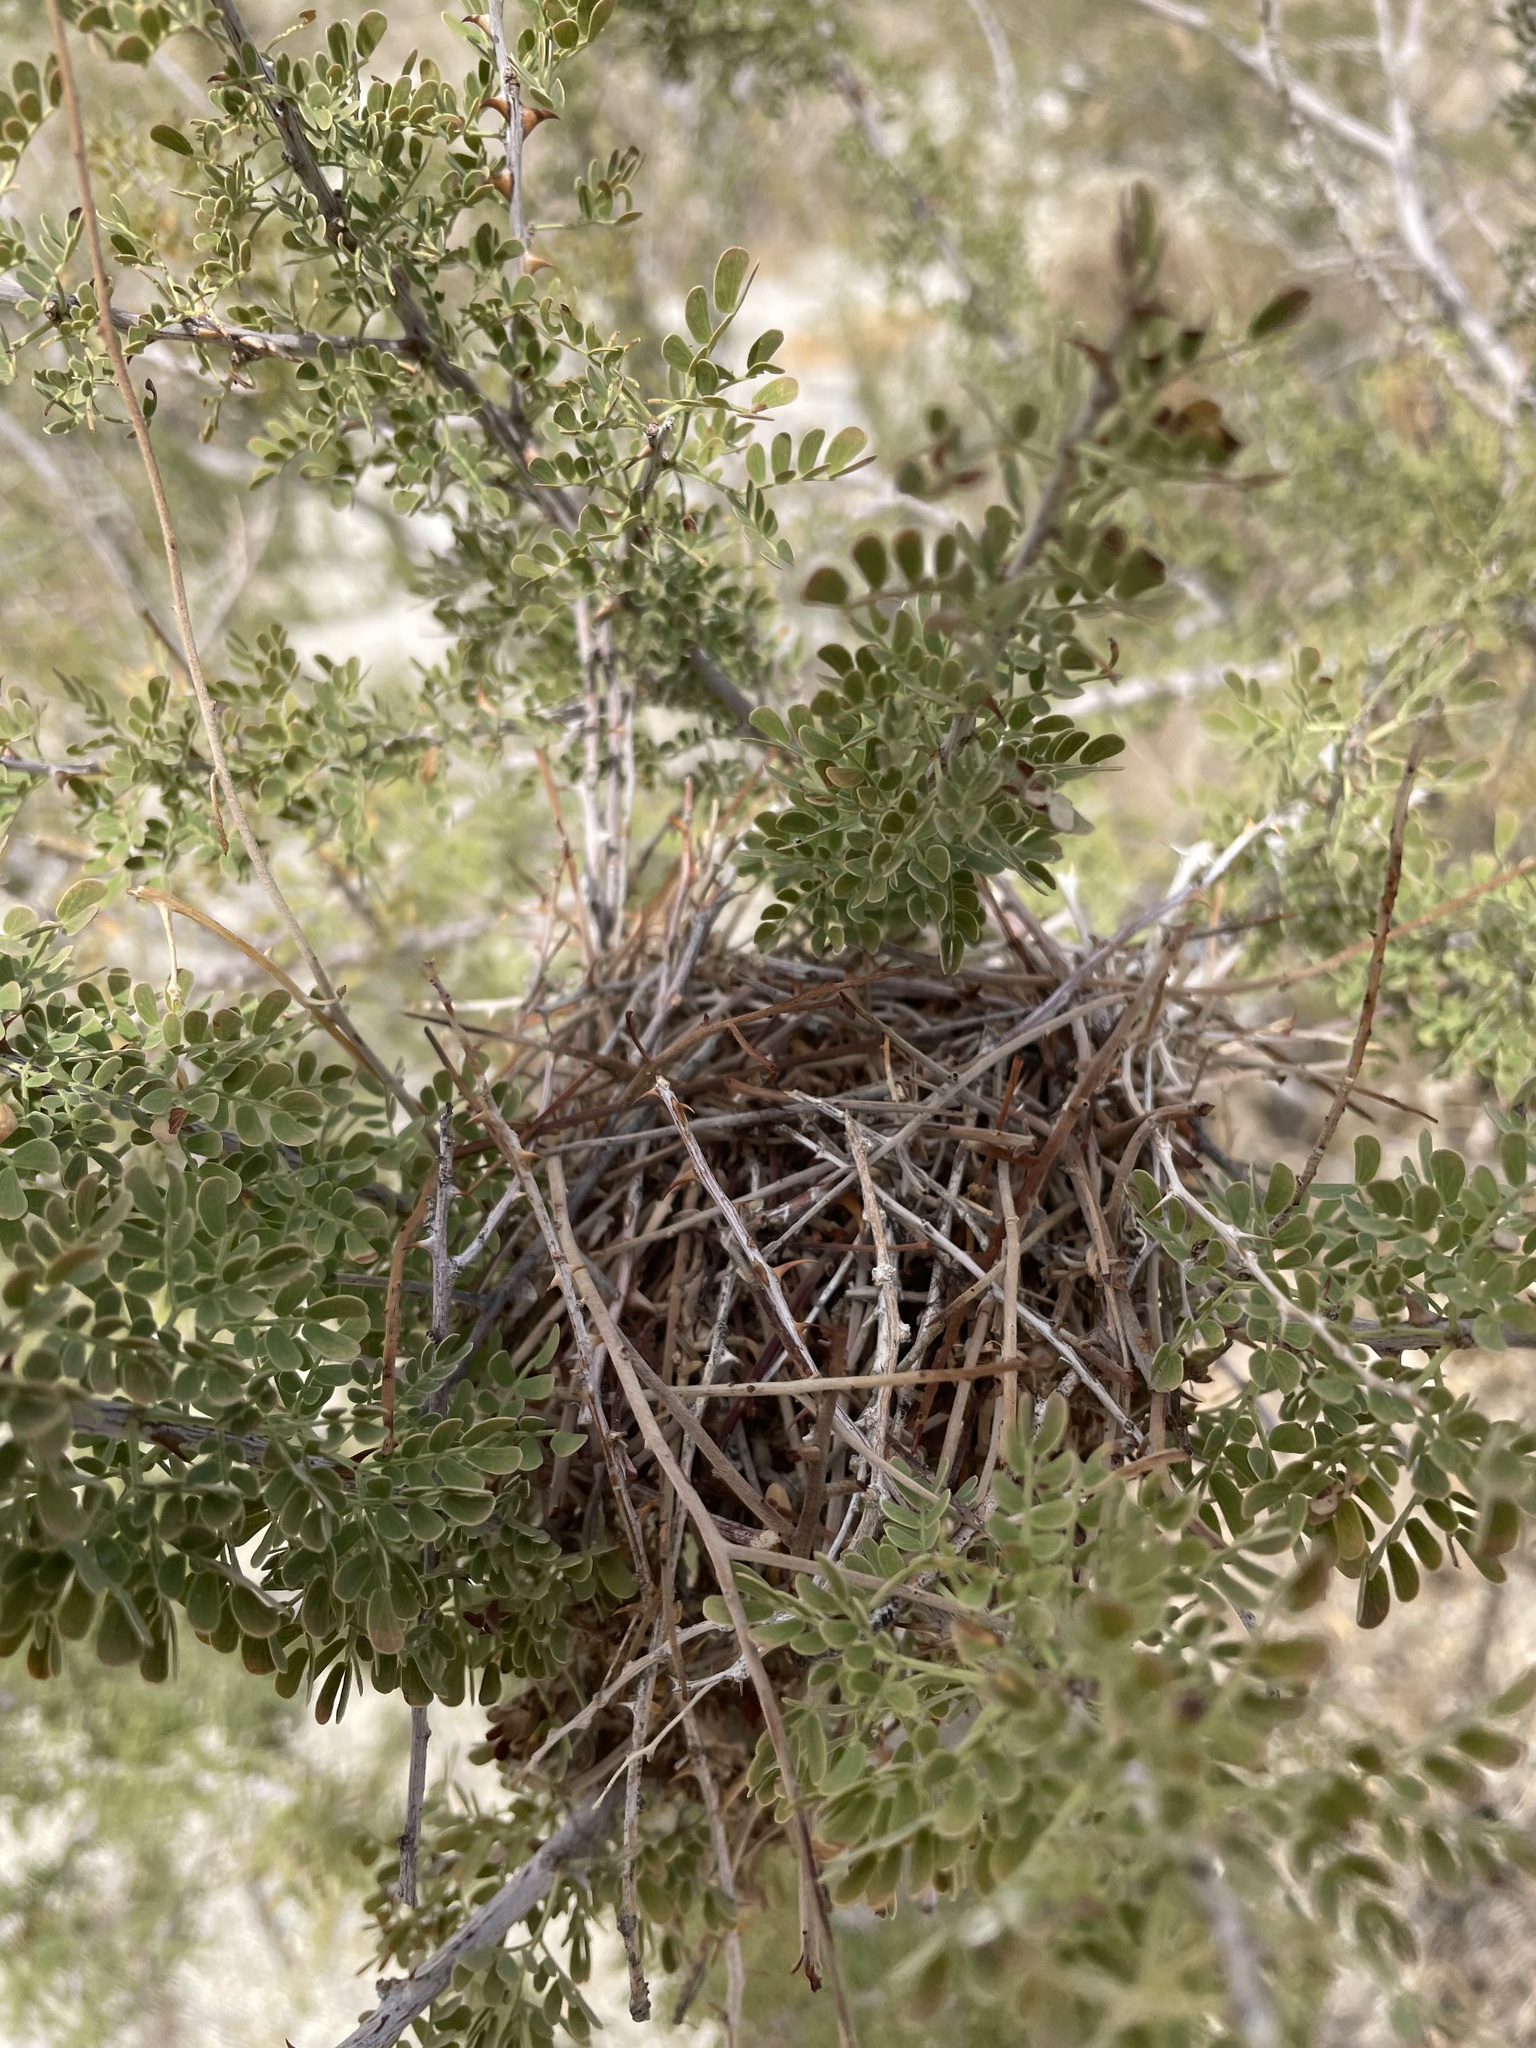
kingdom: Animalia
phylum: Chordata
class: Aves
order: Passeriformes
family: Remizidae
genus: Auriparus
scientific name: Auriparus flaviceps
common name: Verdin
